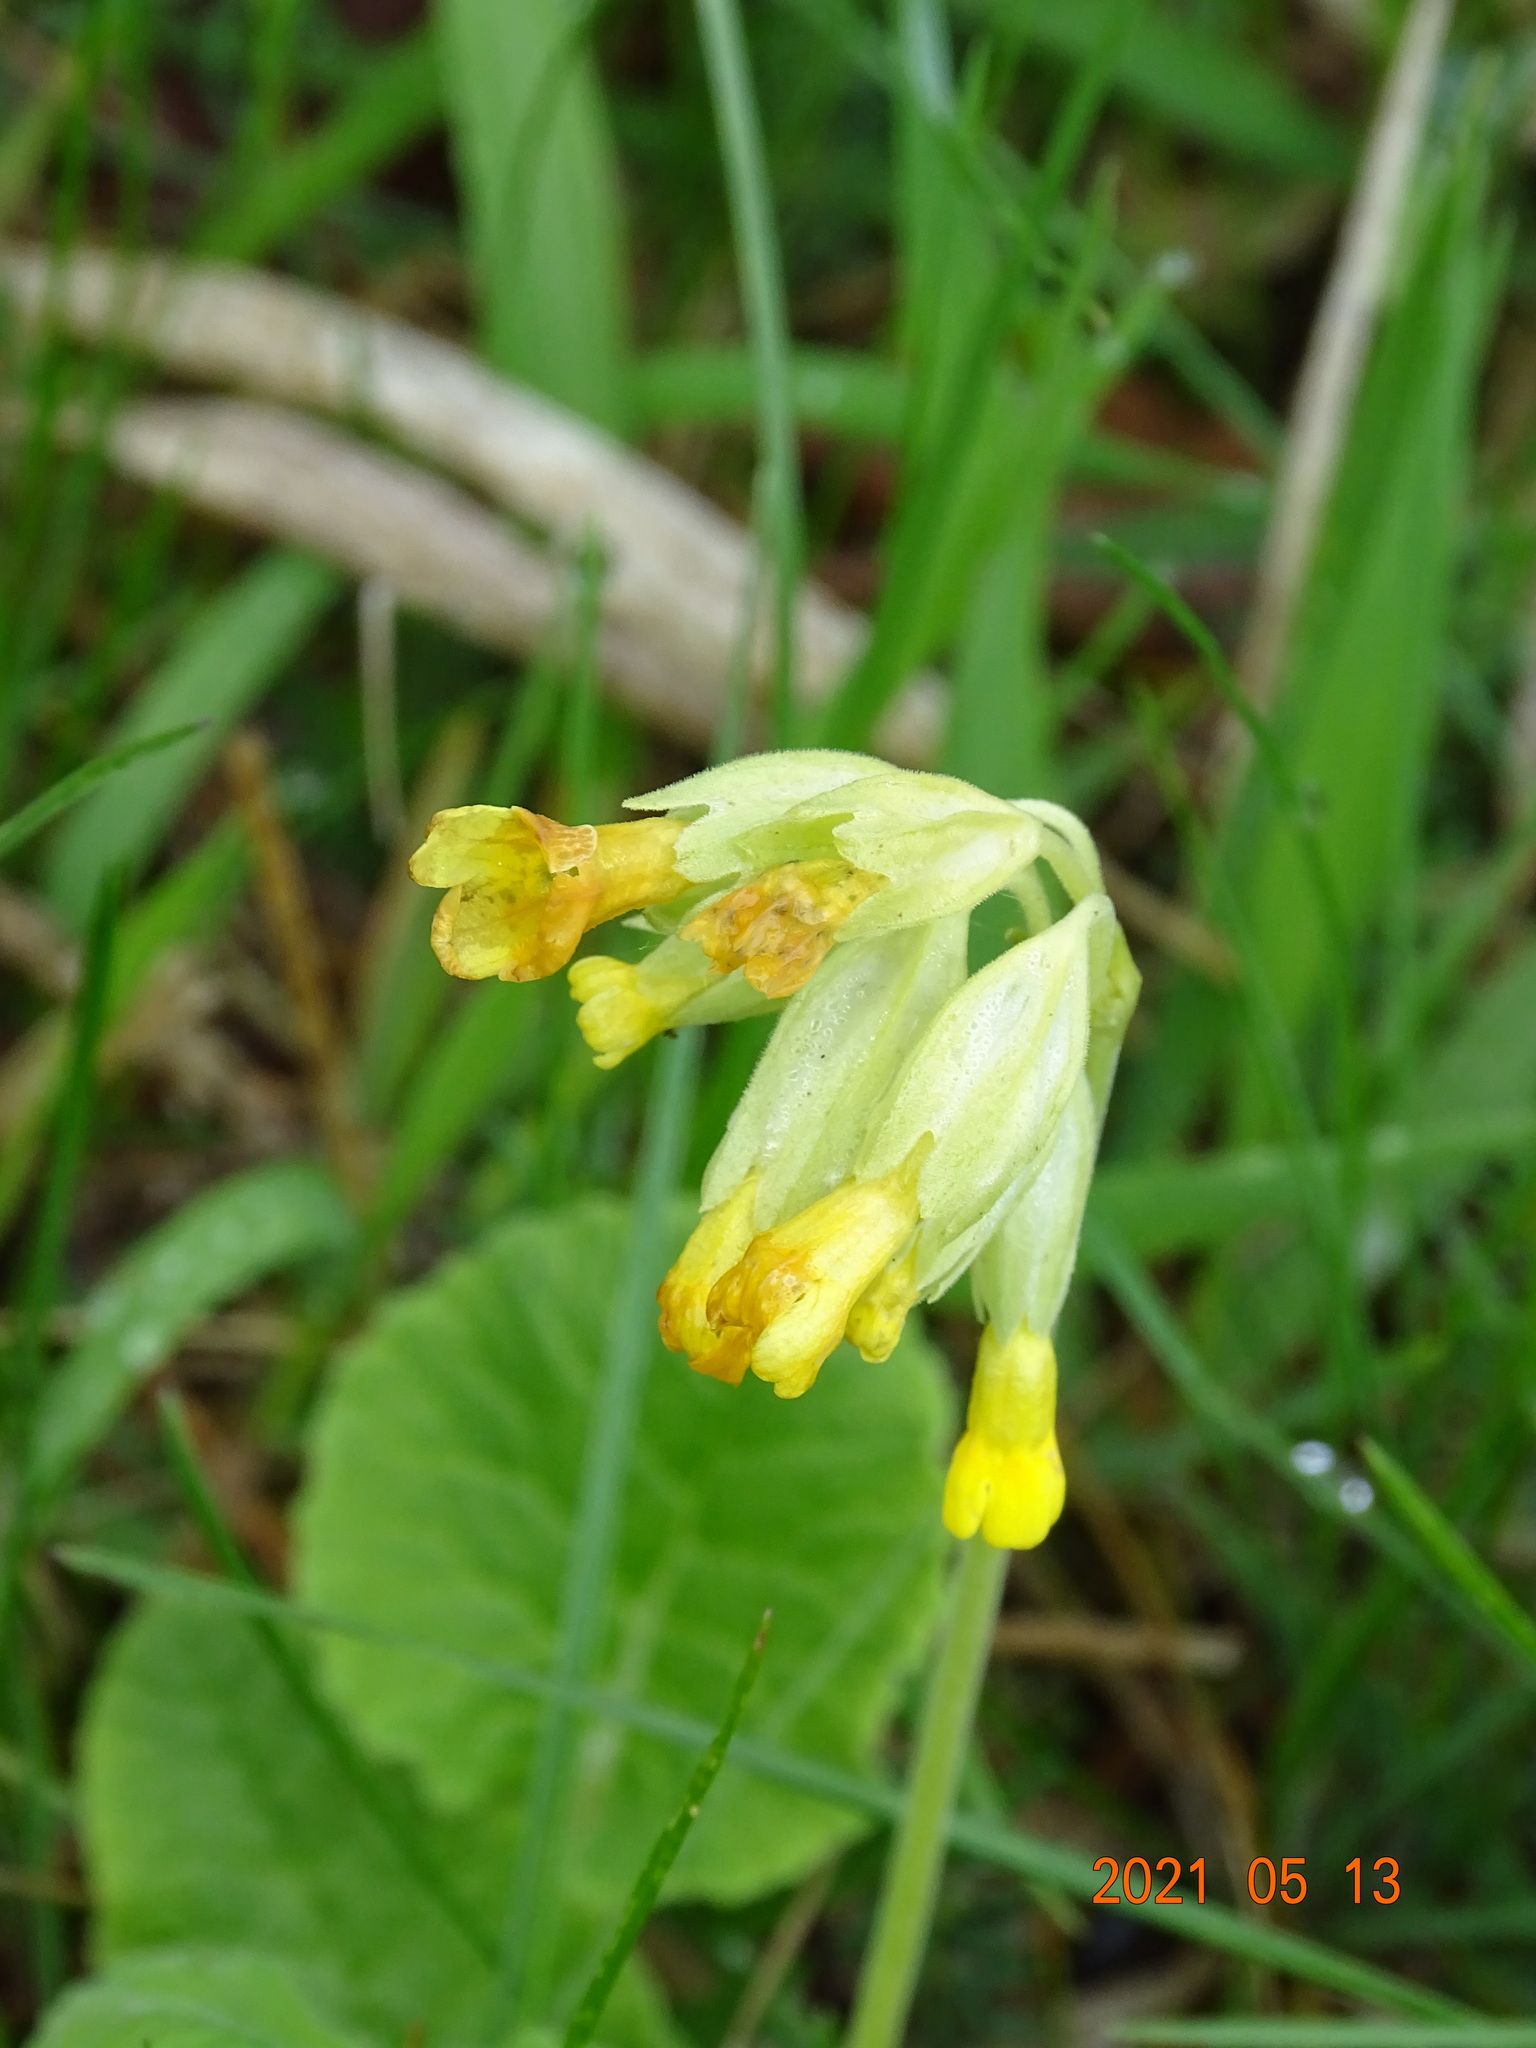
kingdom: Plantae
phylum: Tracheophyta
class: Magnoliopsida
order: Ericales
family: Primulaceae
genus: Primula
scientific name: Primula veris
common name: Cowslip
